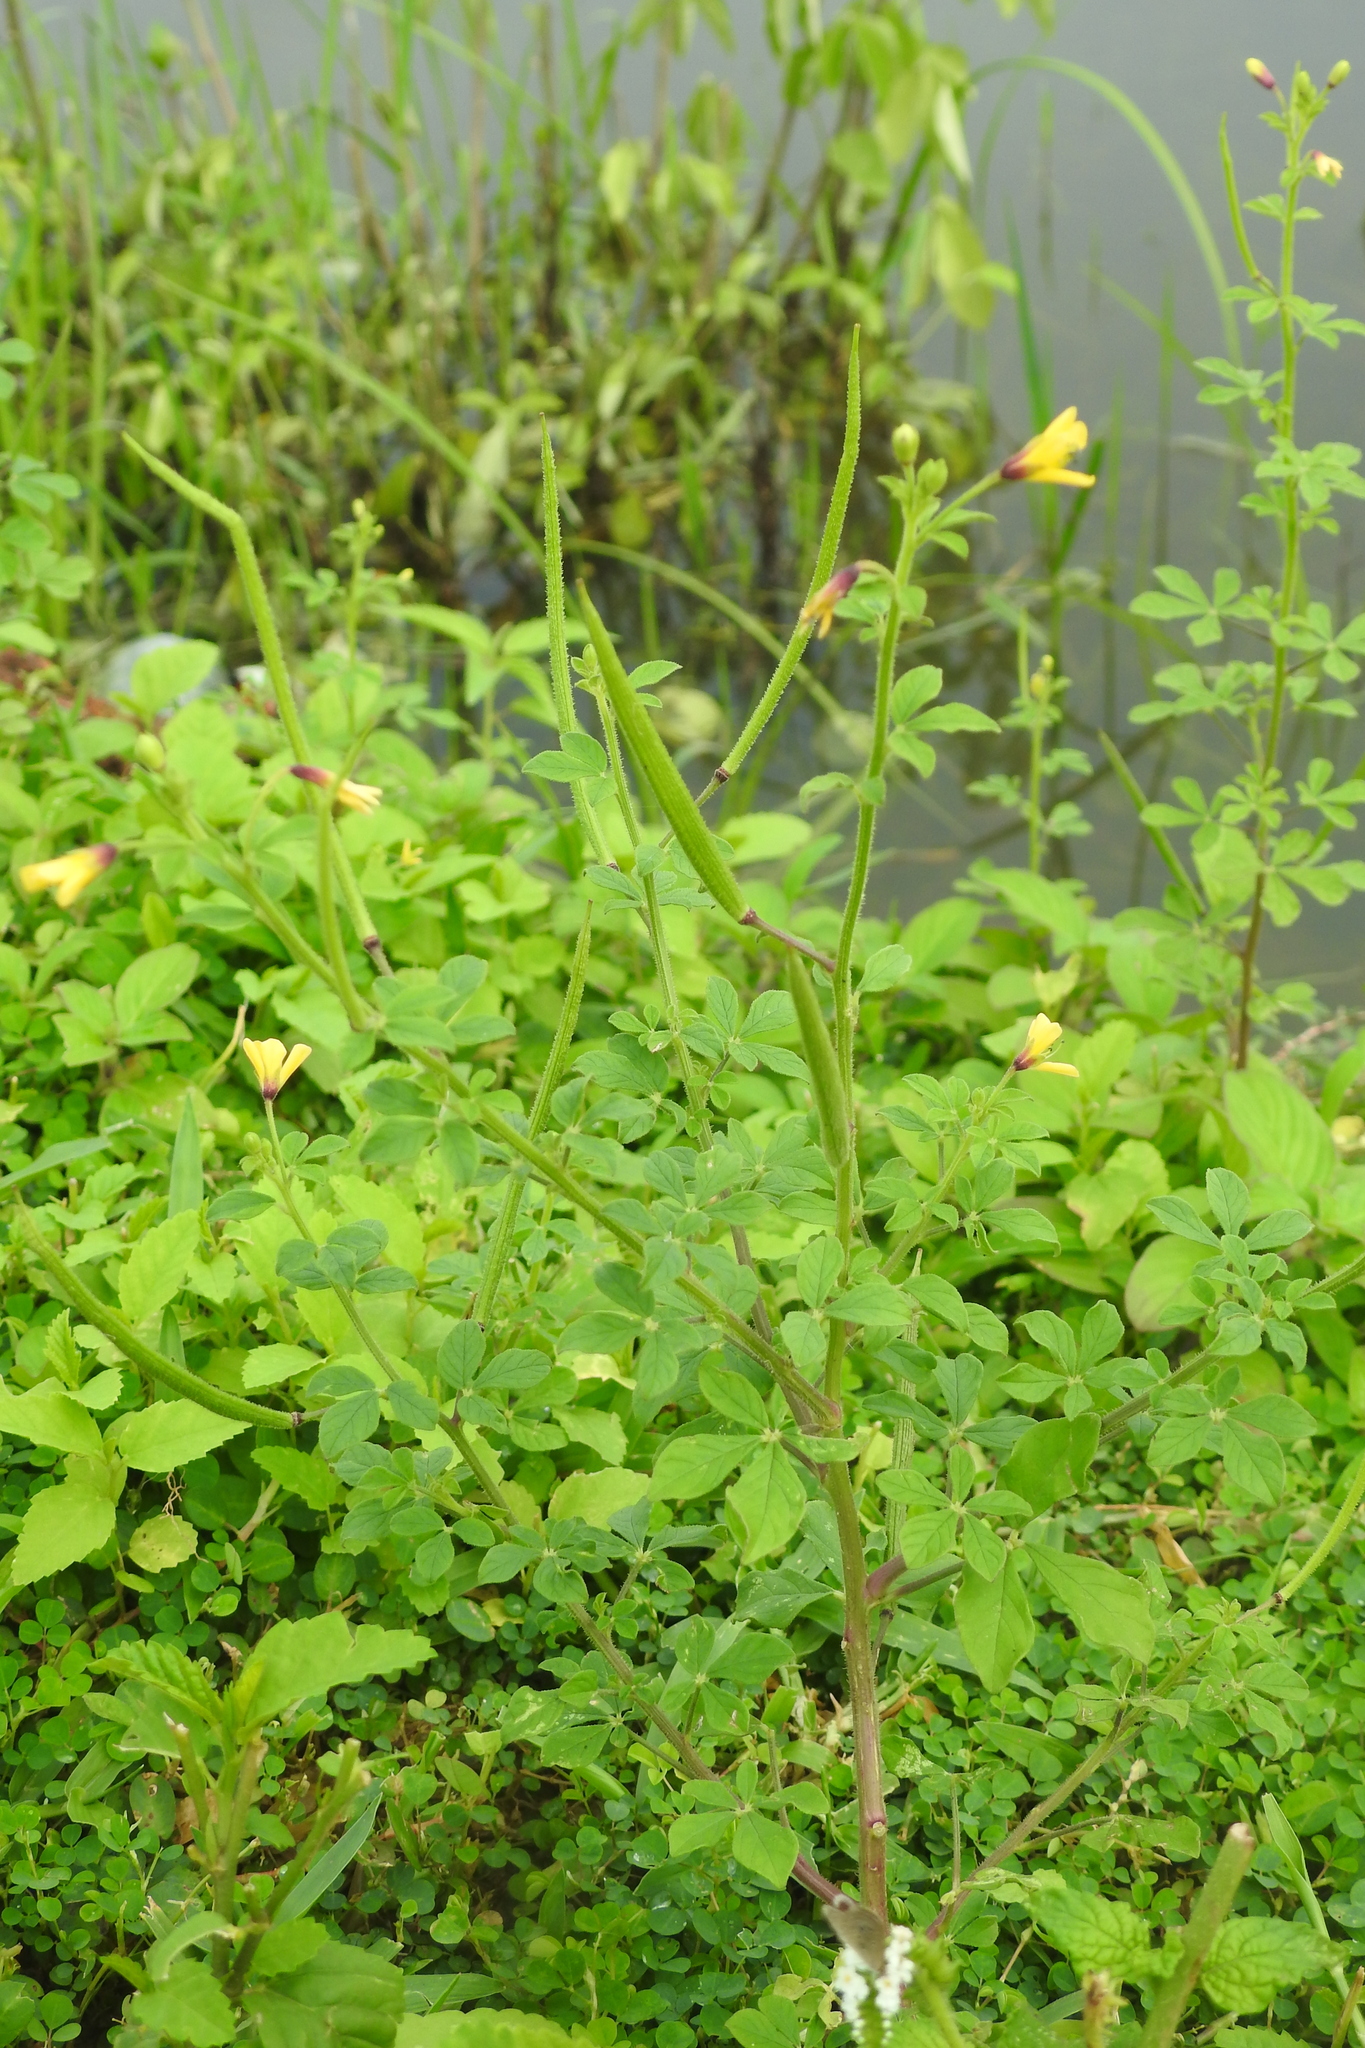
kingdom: Plantae
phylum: Tracheophyta
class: Magnoliopsida
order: Brassicales
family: Cleomaceae
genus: Arivela
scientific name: Arivela viscosa
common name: Asian spiderflower
